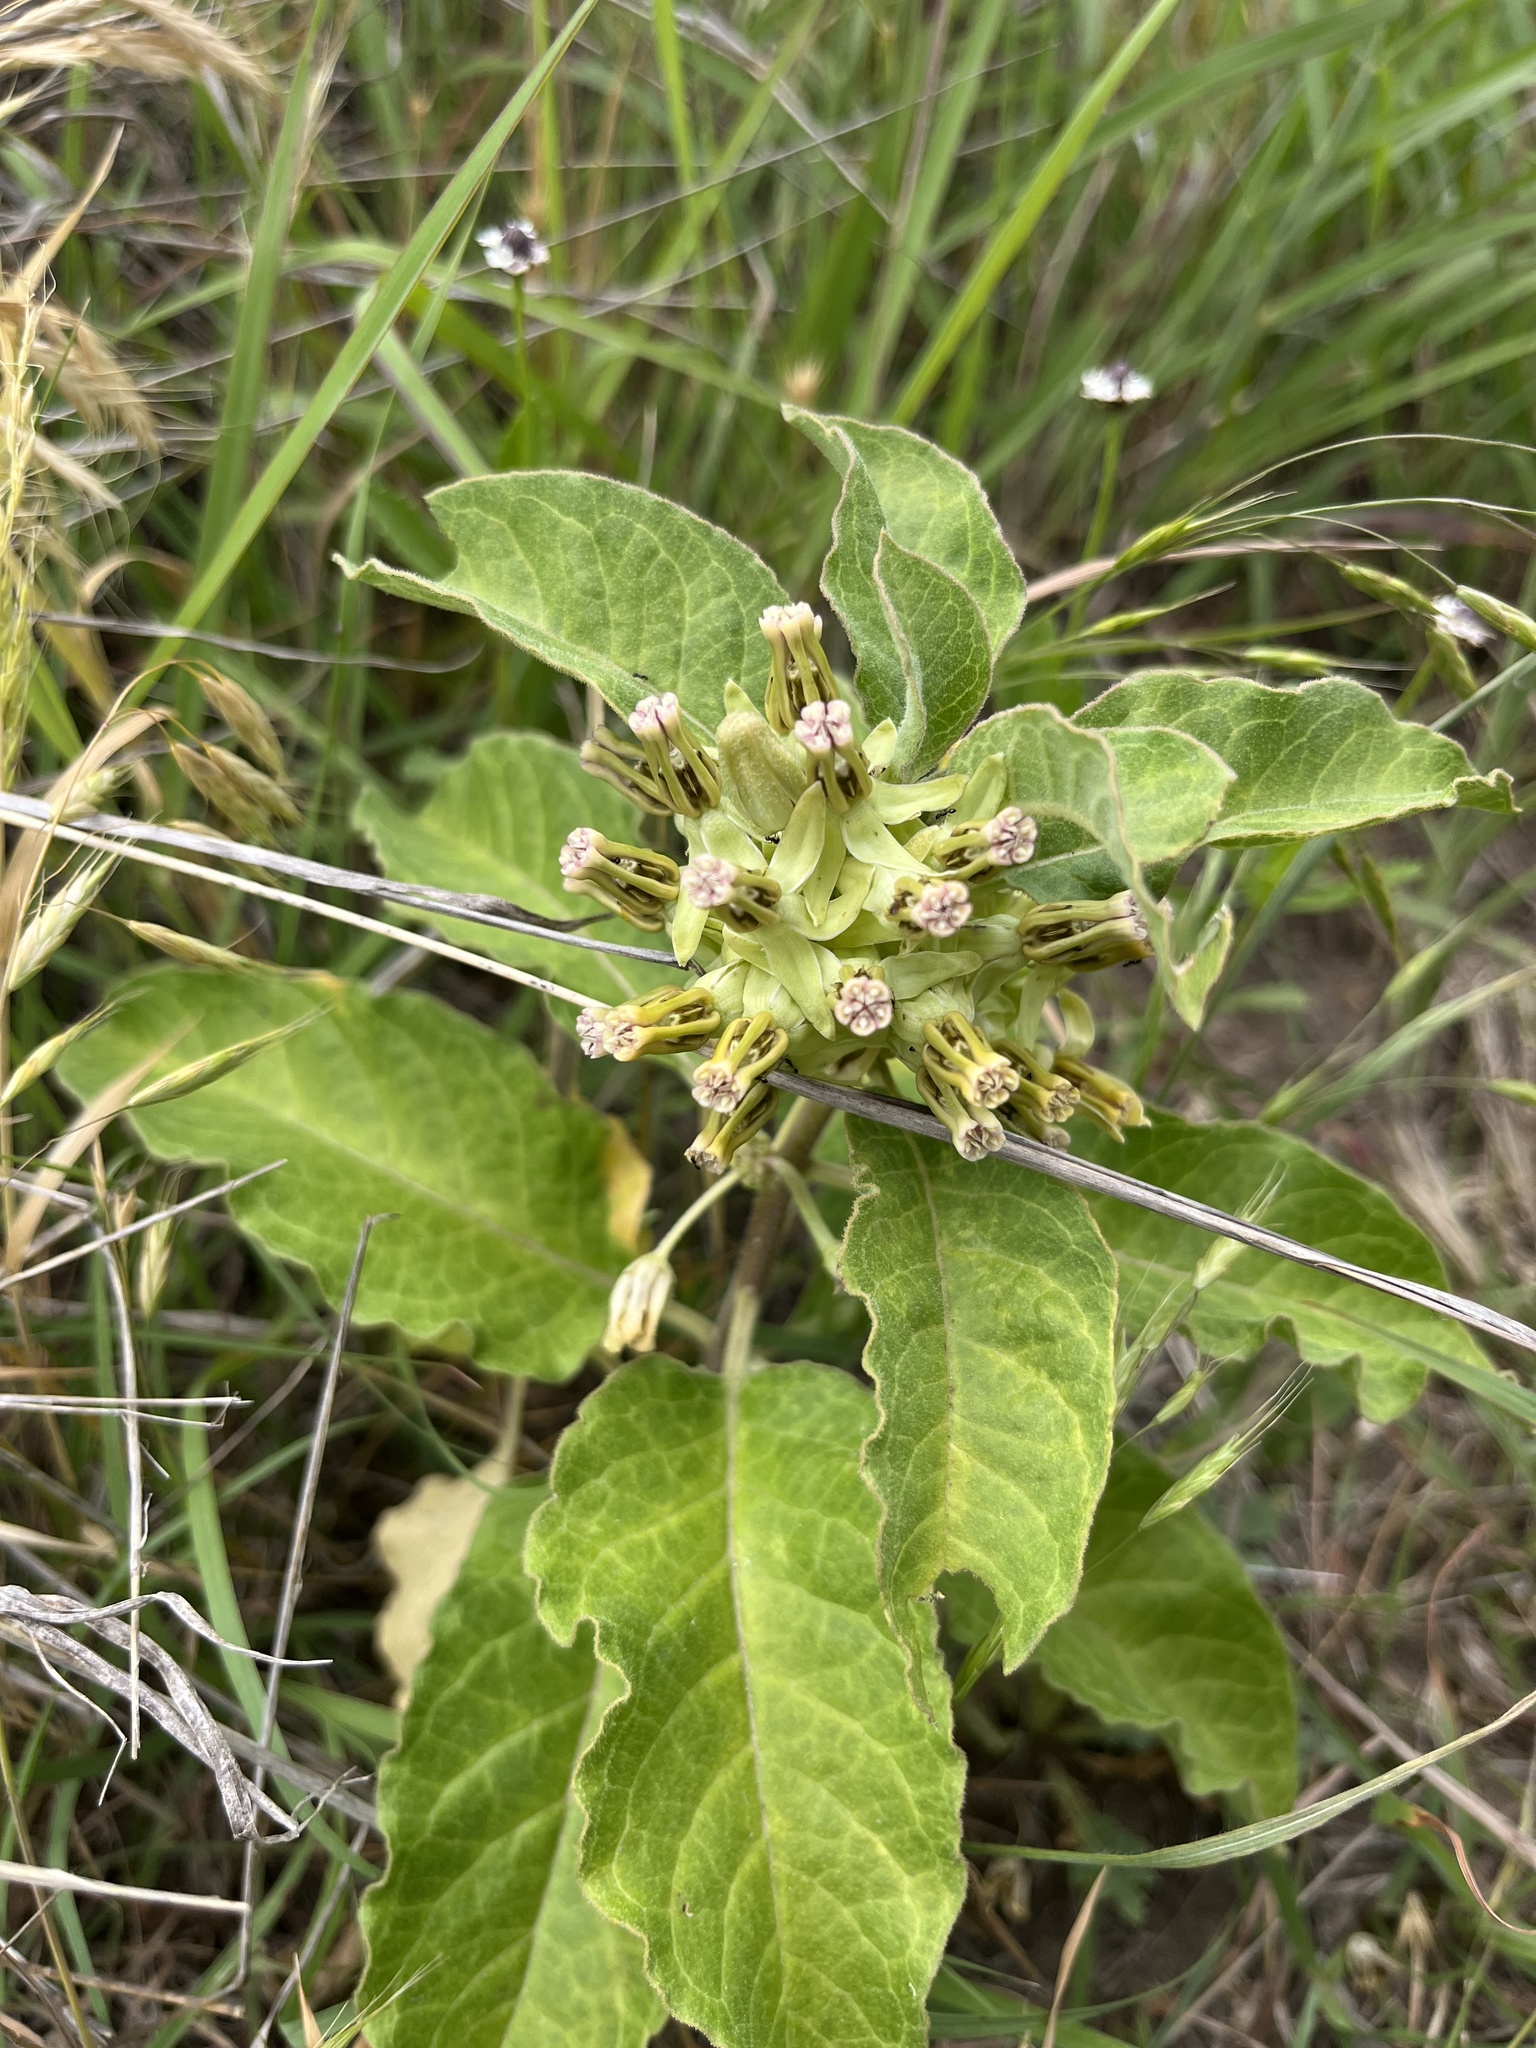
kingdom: Plantae
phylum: Tracheophyta
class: Magnoliopsida
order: Gentianales
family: Apocynaceae
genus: Asclepias
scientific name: Asclepias oenotheroides
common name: Zizotes milkweed
